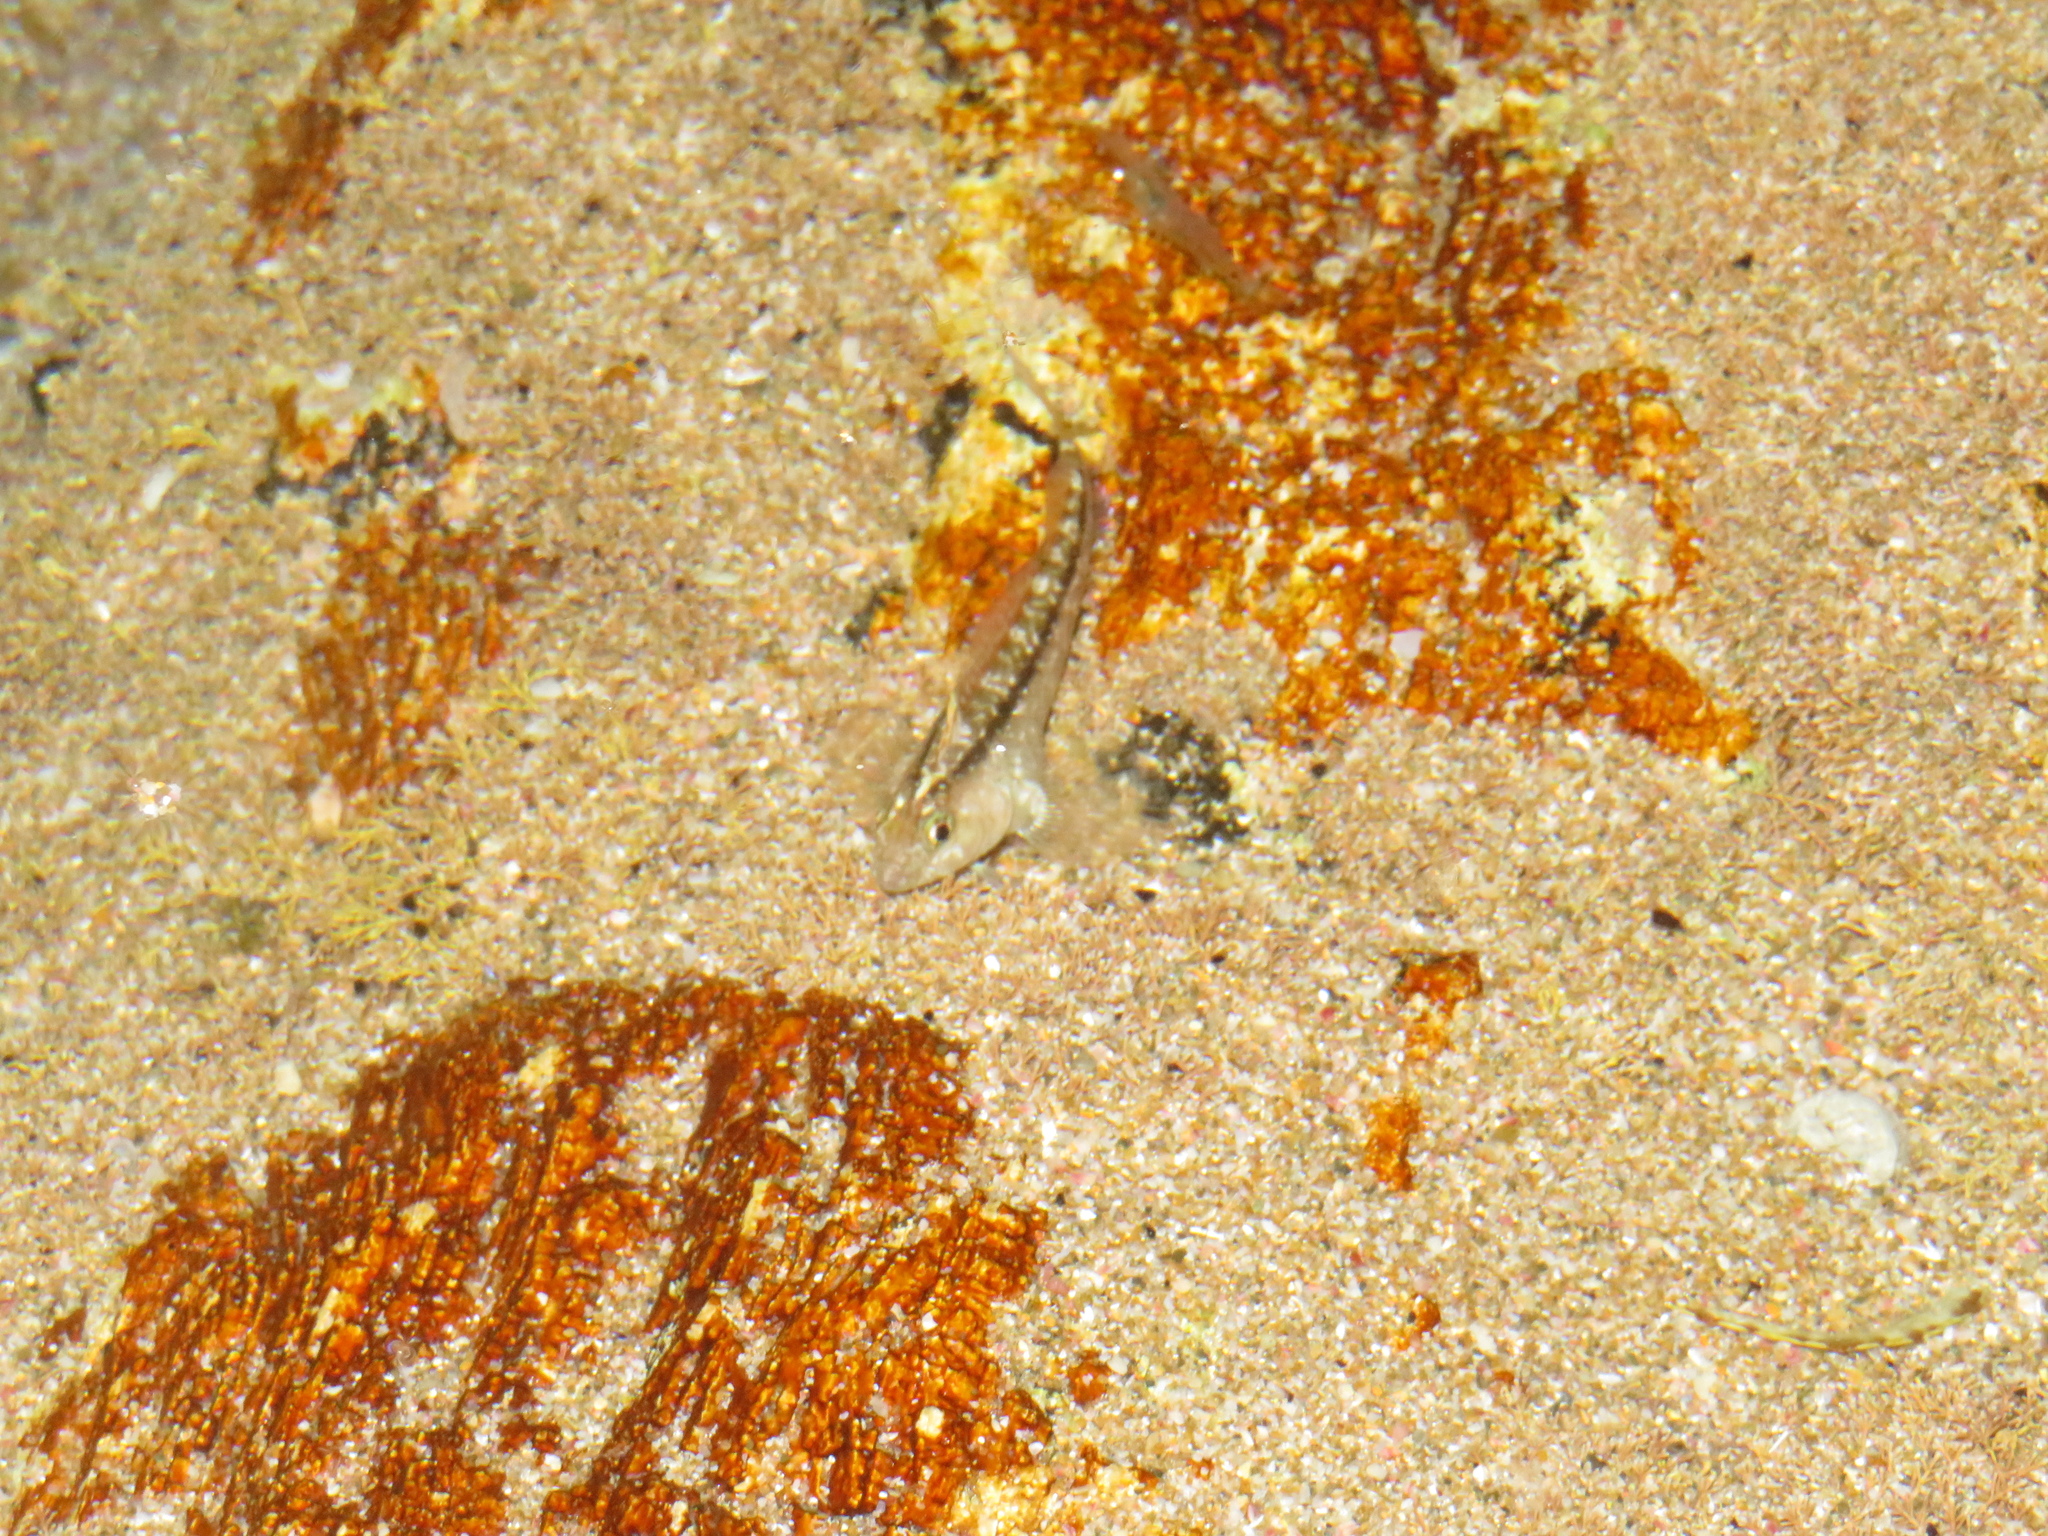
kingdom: Animalia
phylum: Chordata
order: Perciformes
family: Tripterygiidae
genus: Forsterygion
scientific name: Forsterygion lapillum
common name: Common triplefin
